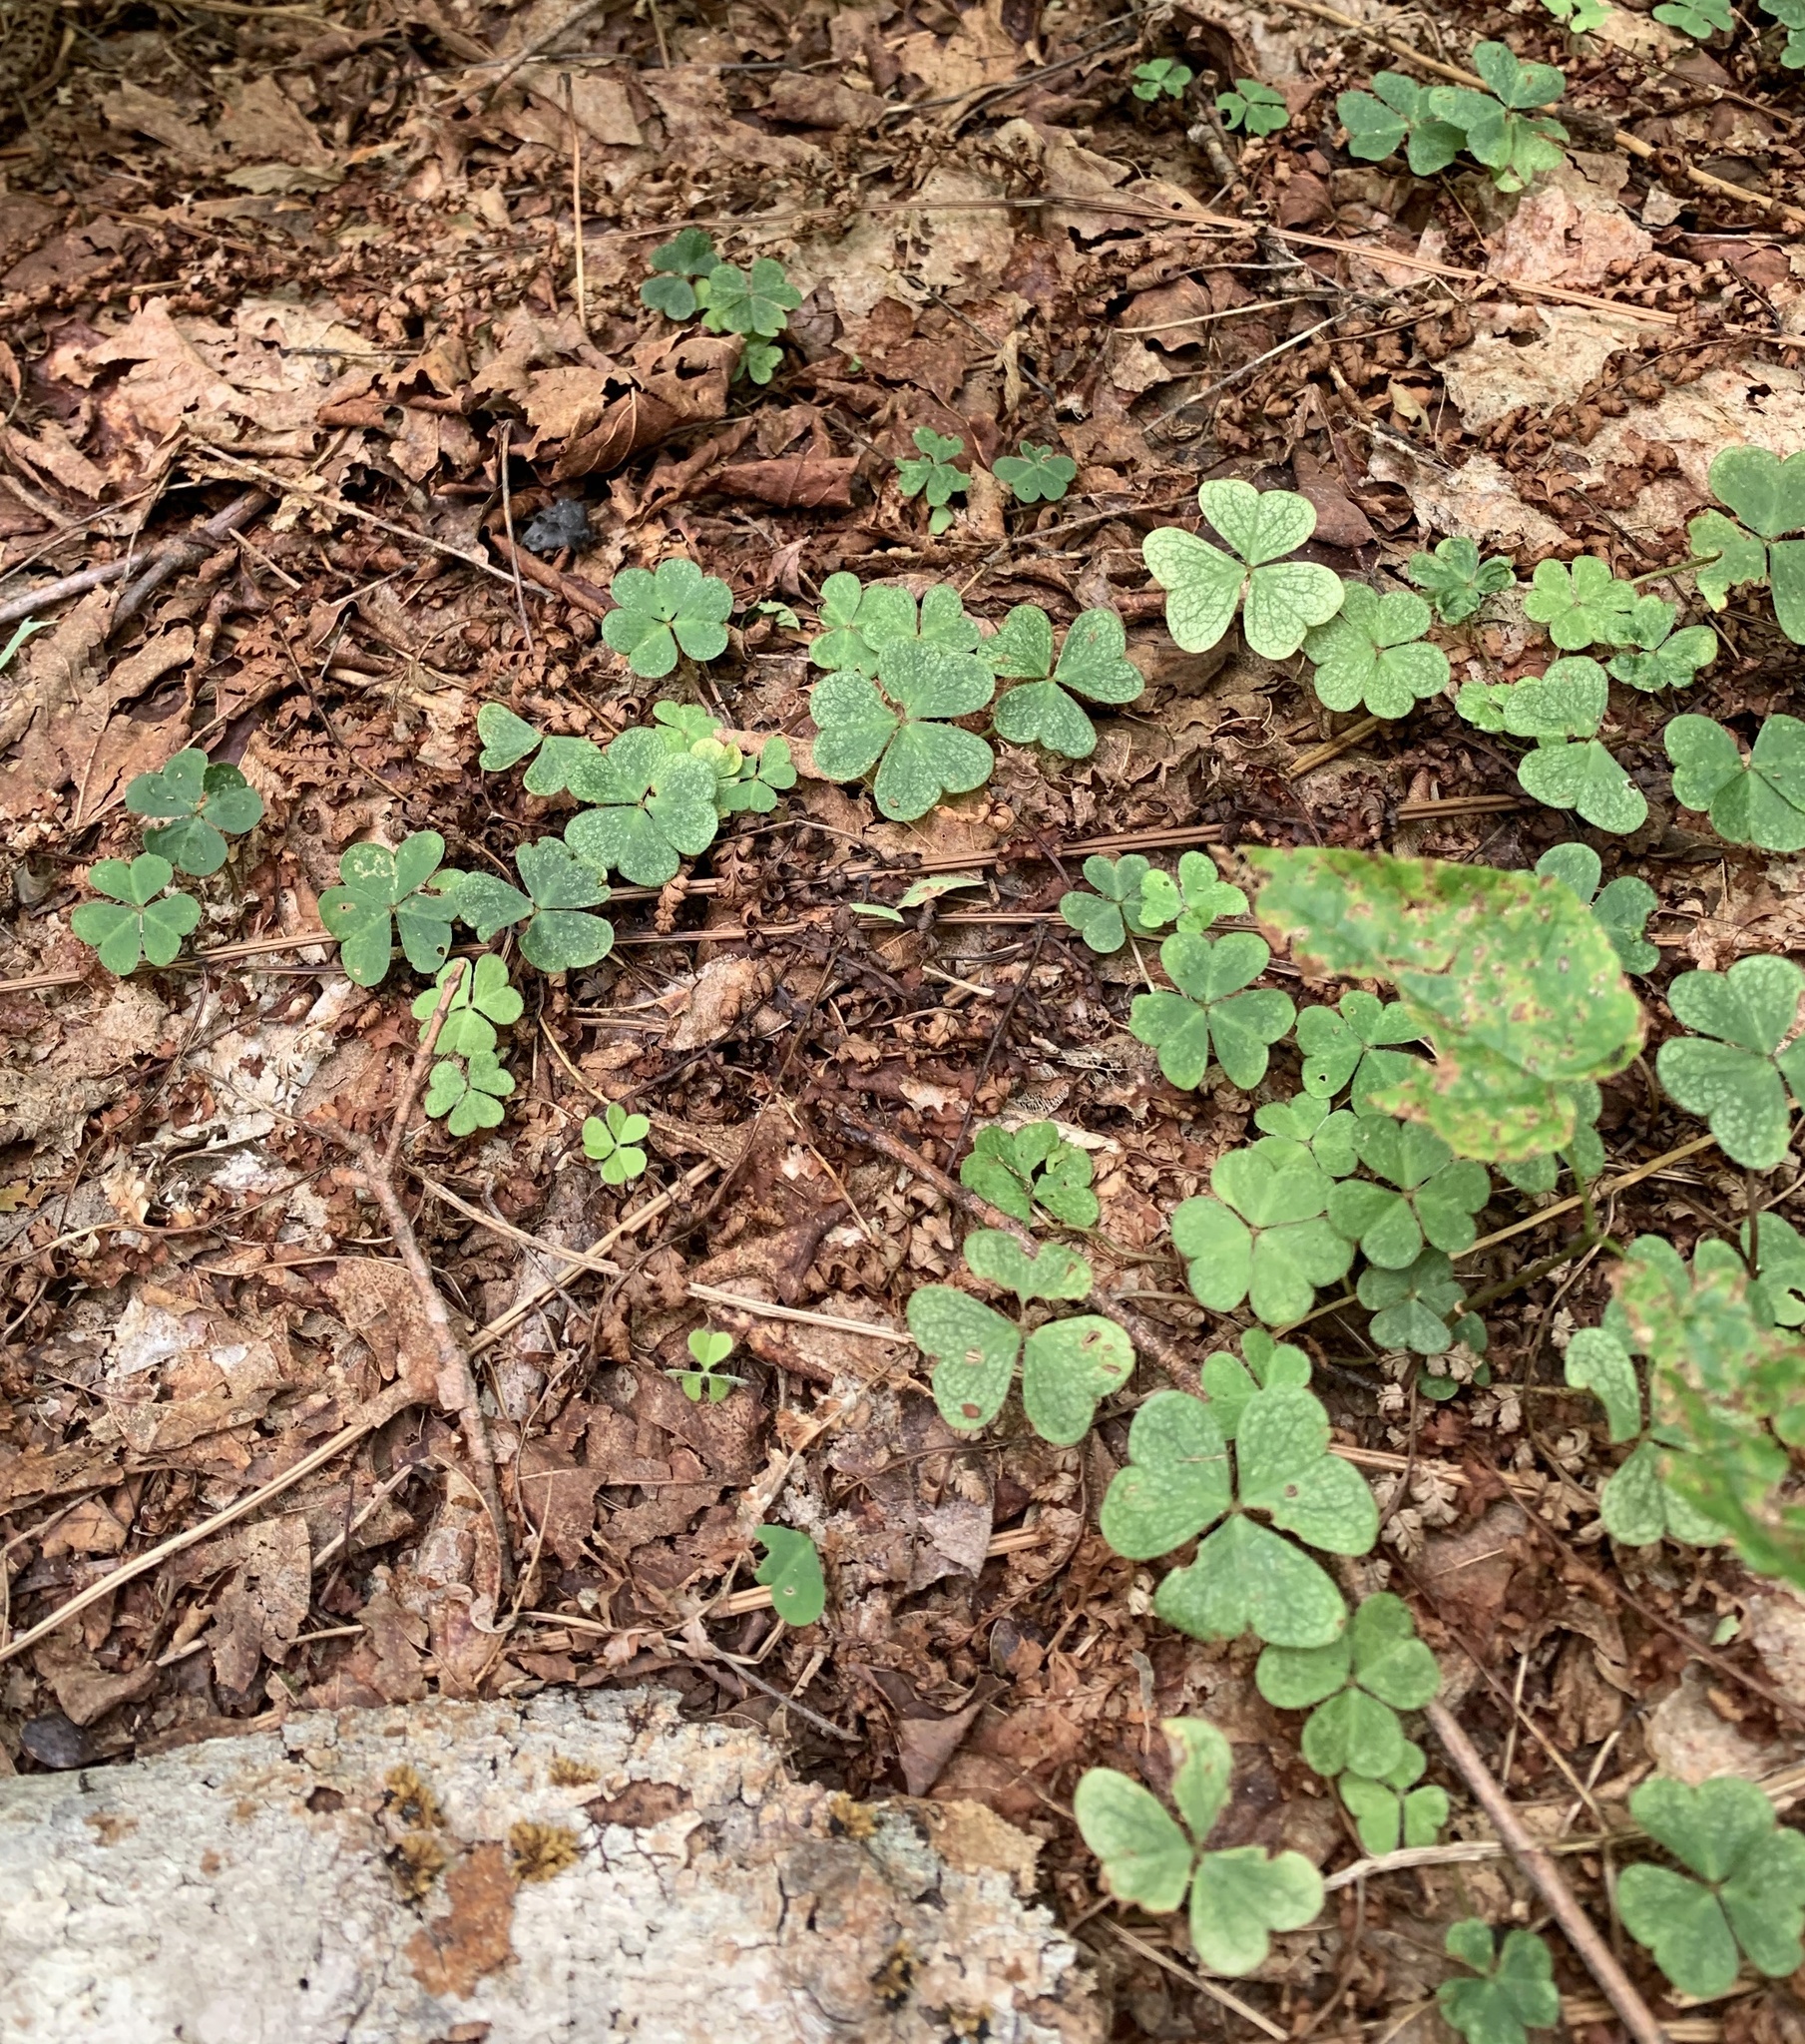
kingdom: Plantae
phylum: Tracheophyta
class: Magnoliopsida
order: Oxalidales
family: Oxalidaceae
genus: Oxalis
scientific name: Oxalis montana
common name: American wood-sorrel
